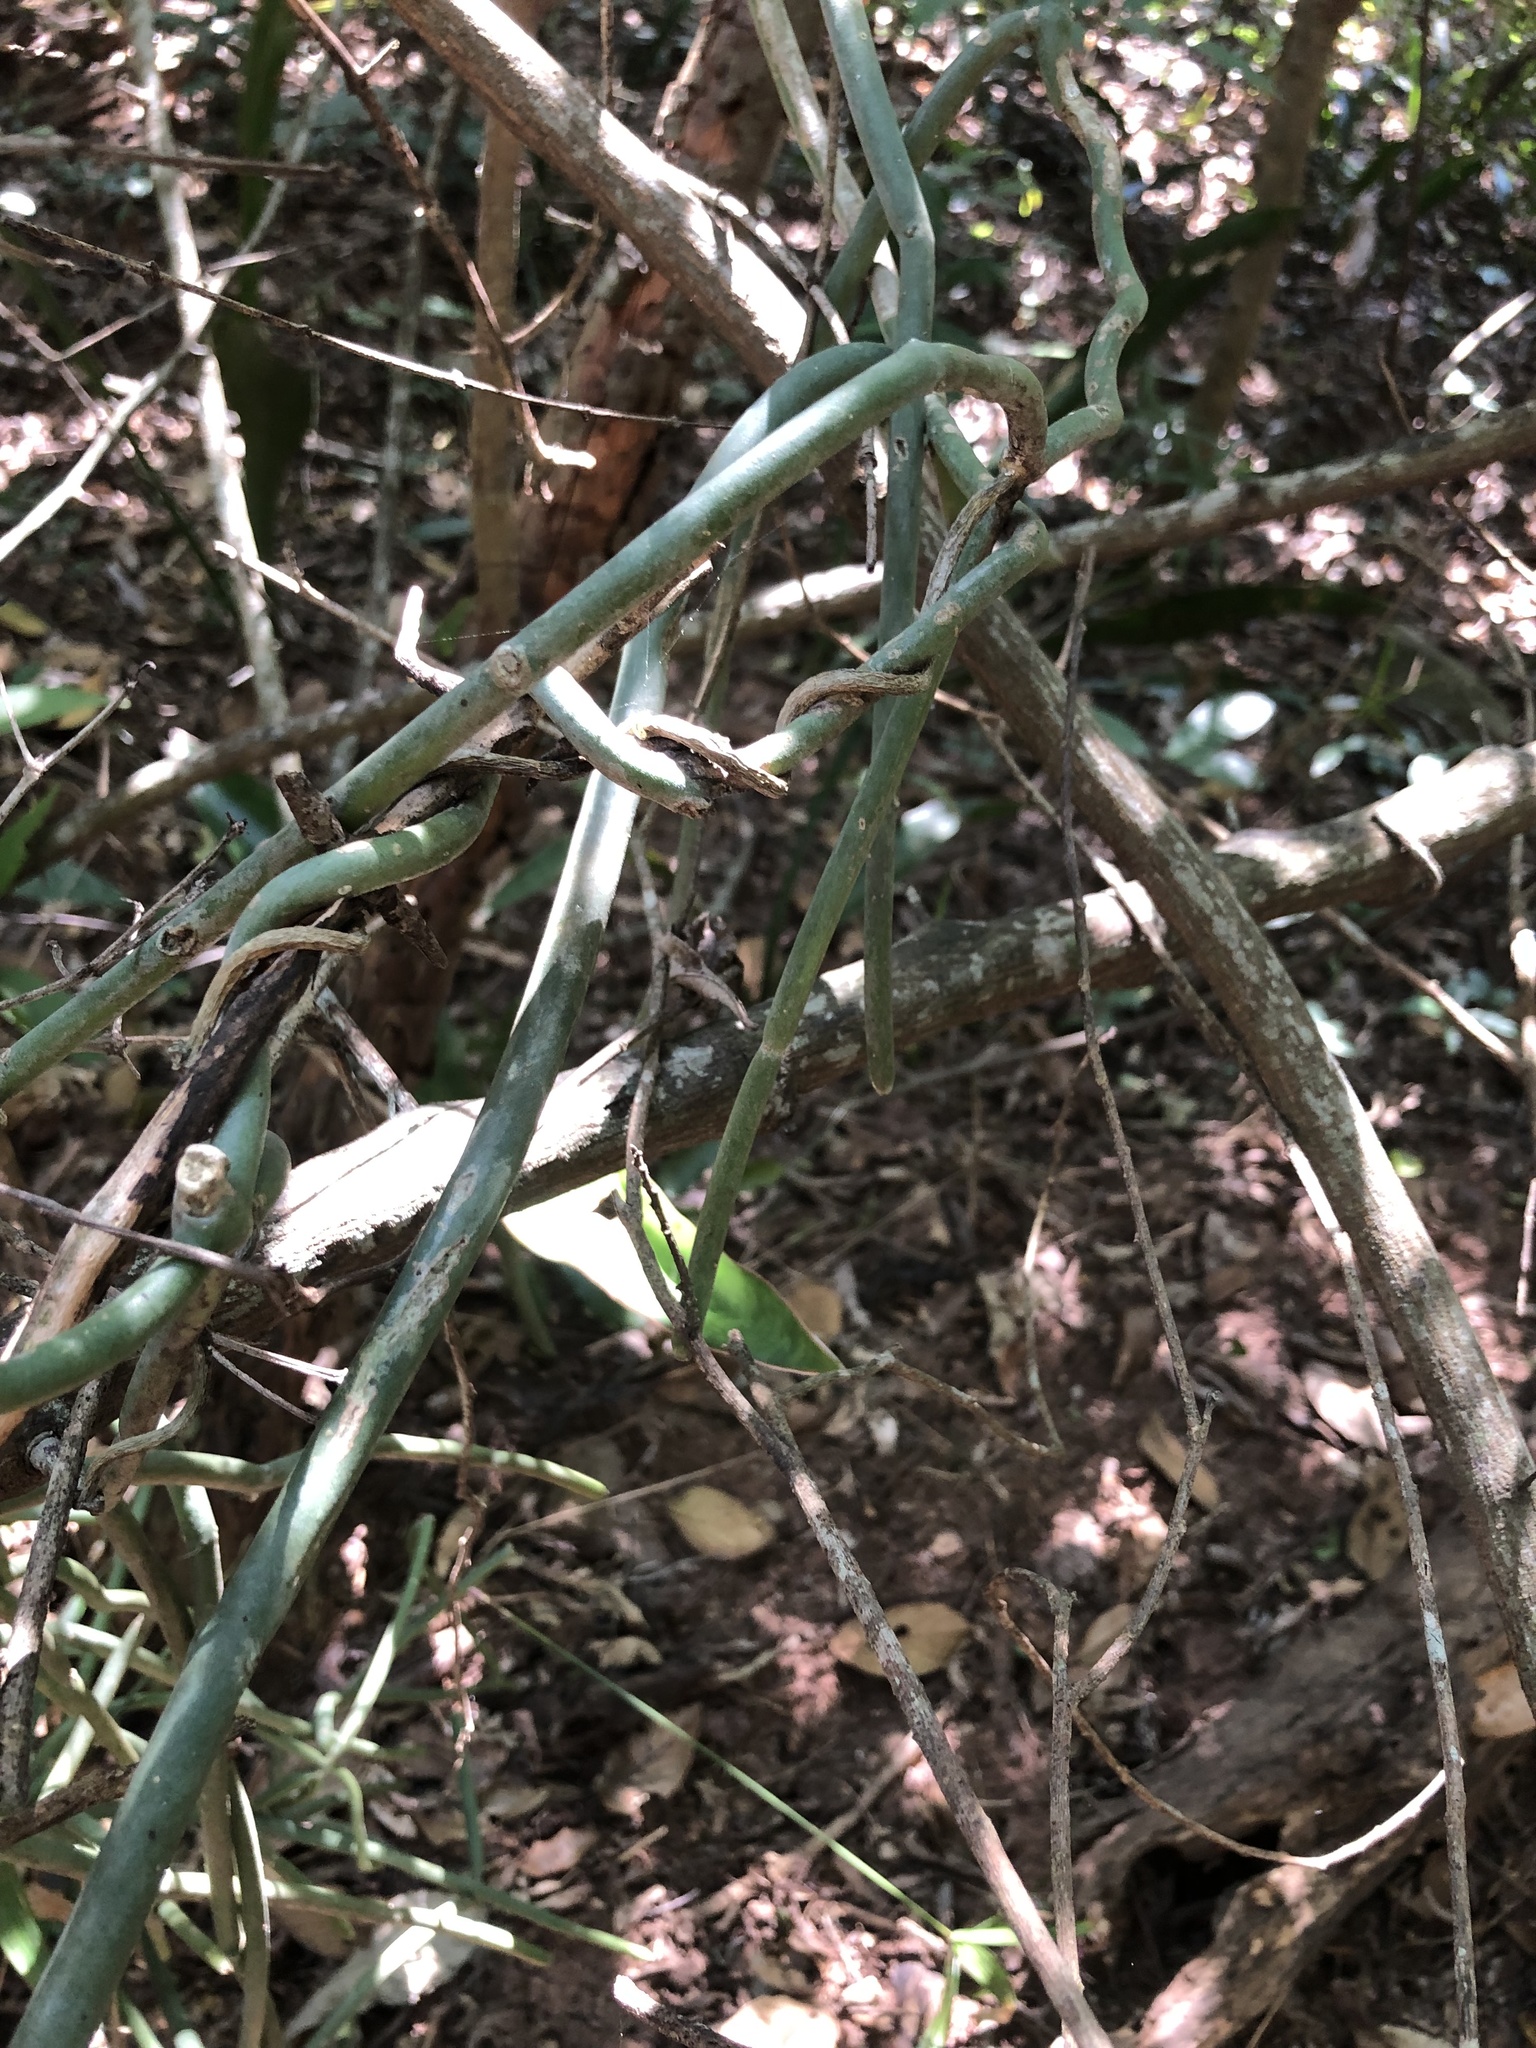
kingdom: Plantae
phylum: Tracheophyta
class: Magnoliopsida
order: Gentianales
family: Apocynaceae
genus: Cynanchum
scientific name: Cynanchum viminale
